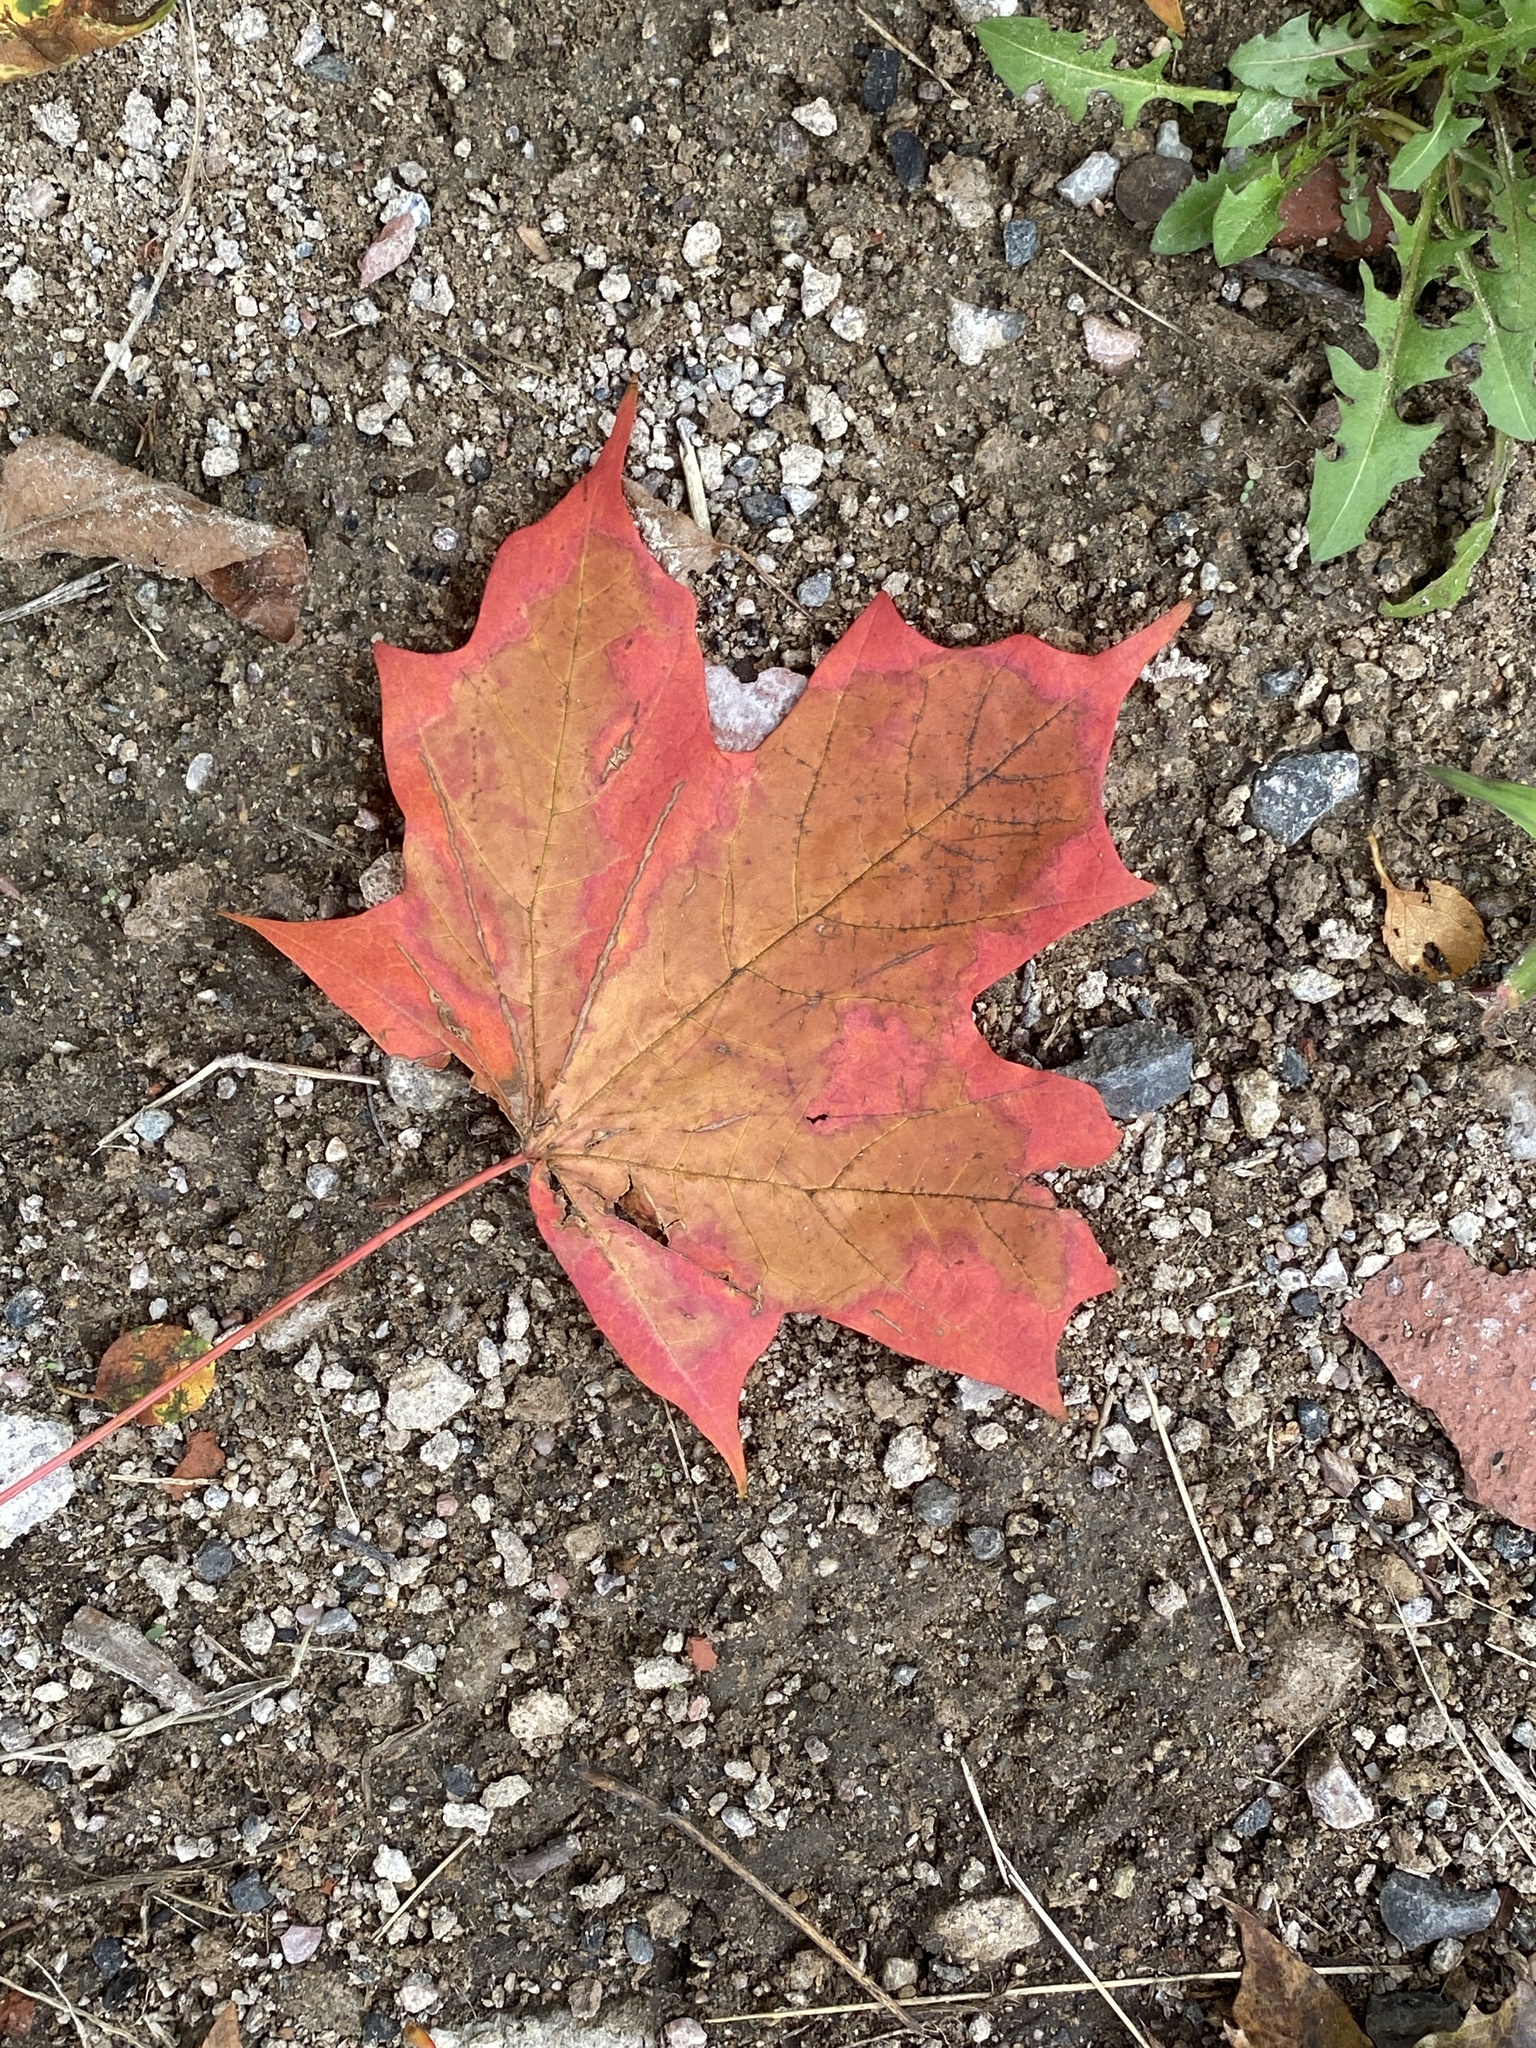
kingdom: Plantae
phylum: Tracheophyta
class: Magnoliopsida
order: Sapindales
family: Sapindaceae
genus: Acer
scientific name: Acer saccharum
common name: Sugar maple
